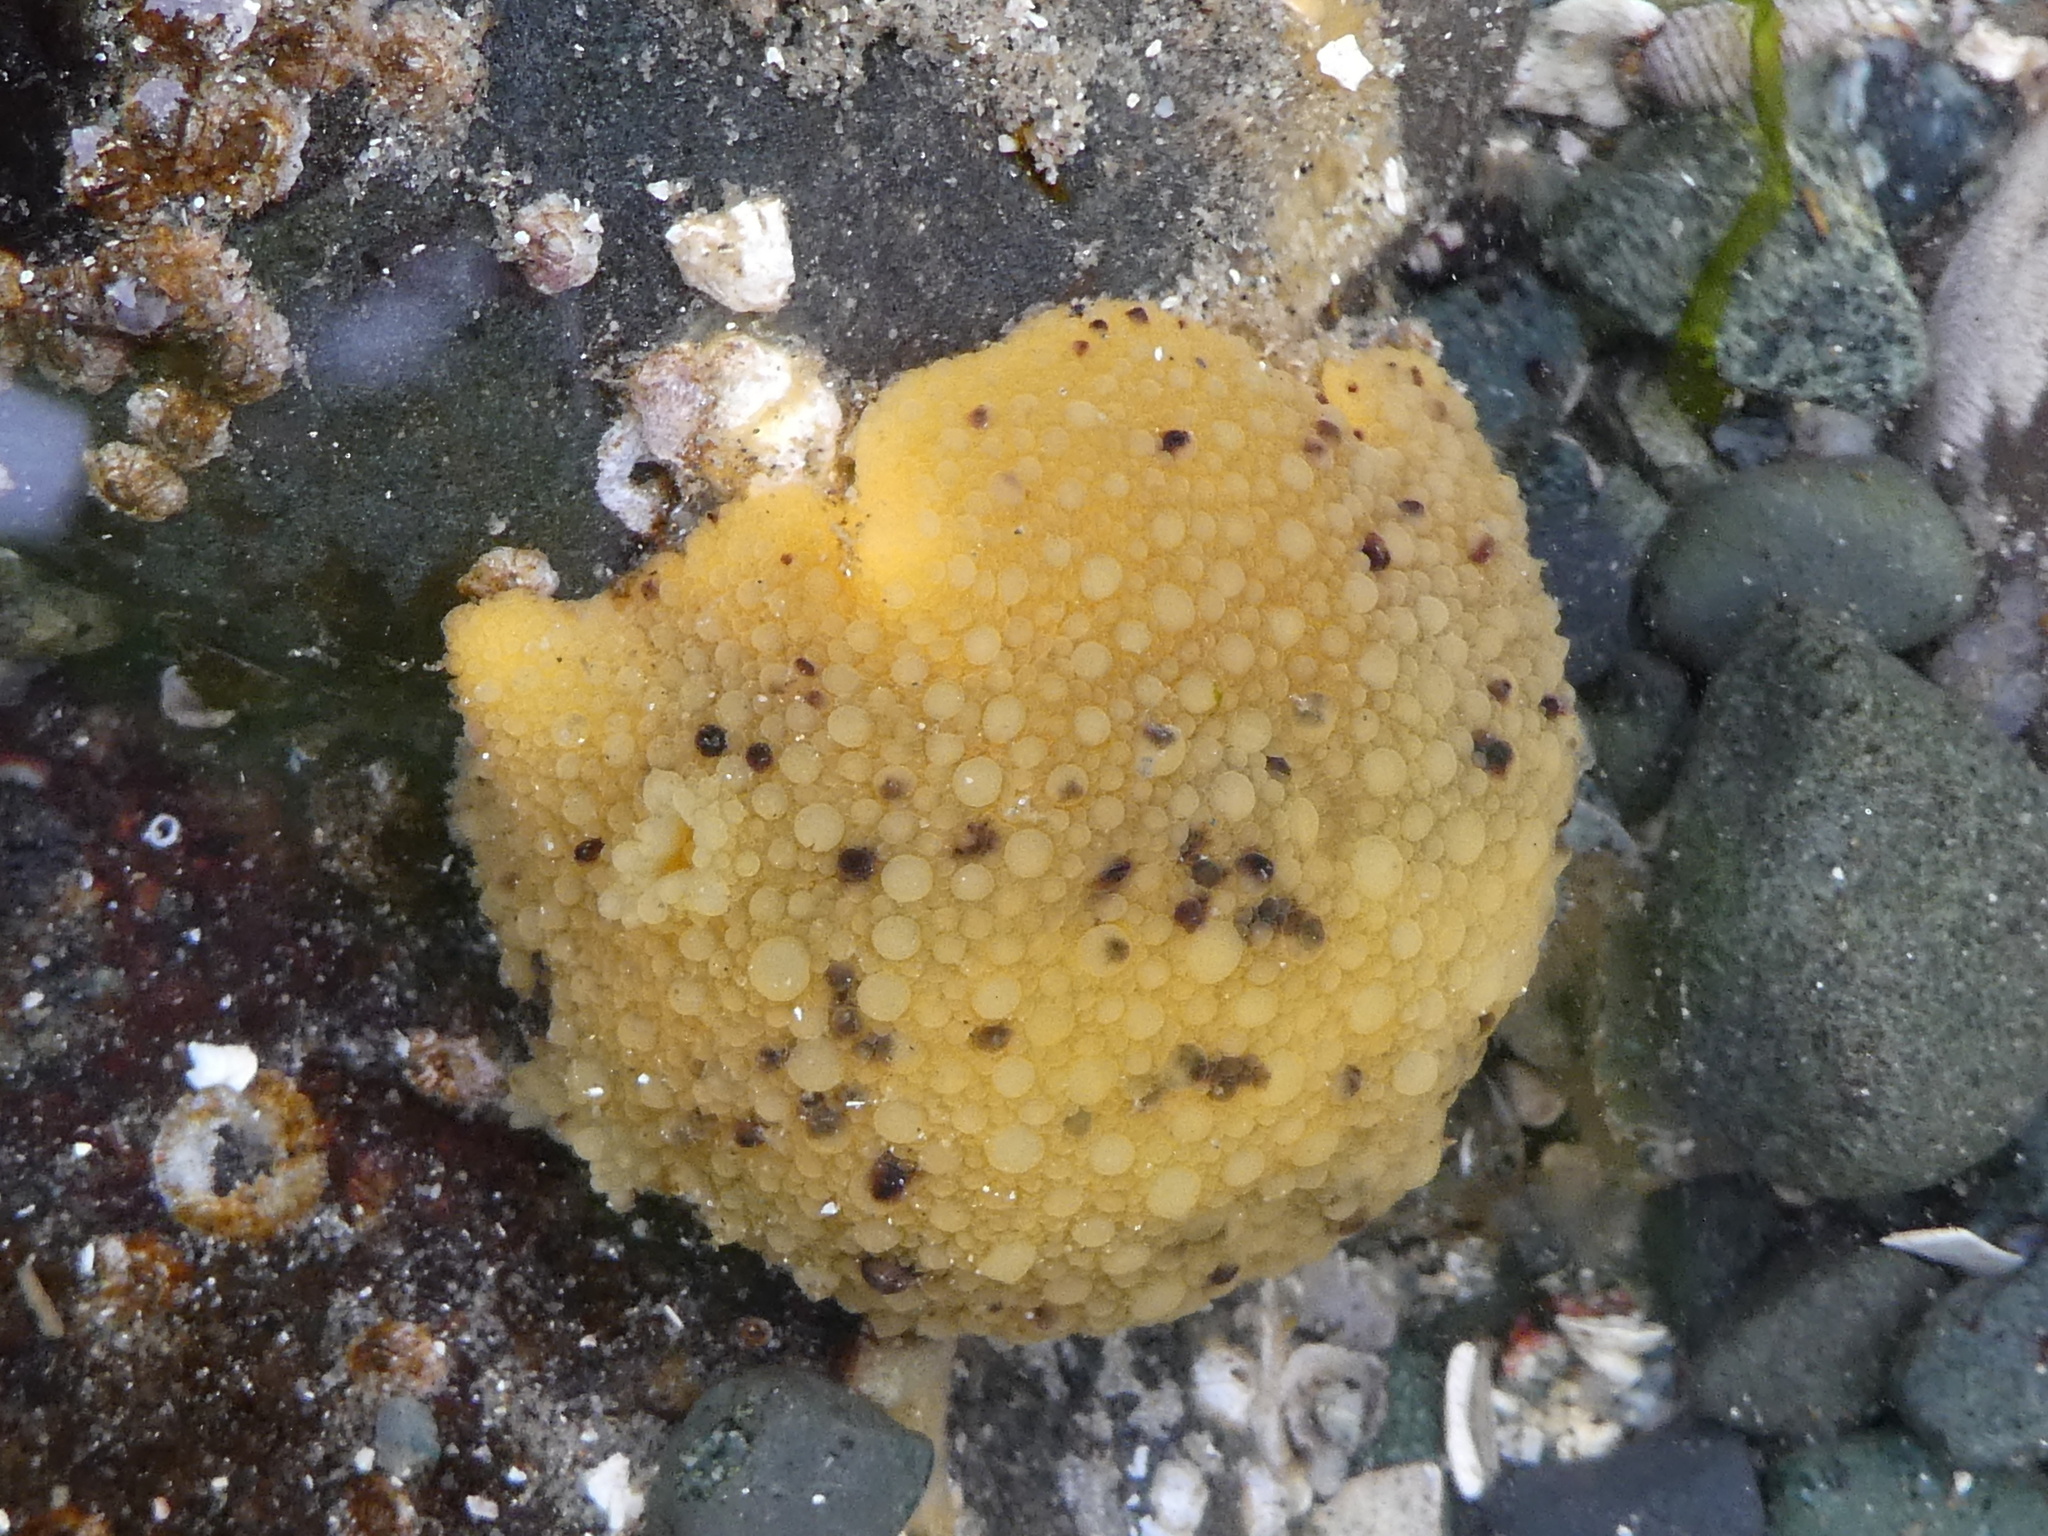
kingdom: Animalia
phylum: Mollusca
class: Gastropoda
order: Nudibranchia
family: Dorididae
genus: Doris
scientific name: Doris montereyensis
